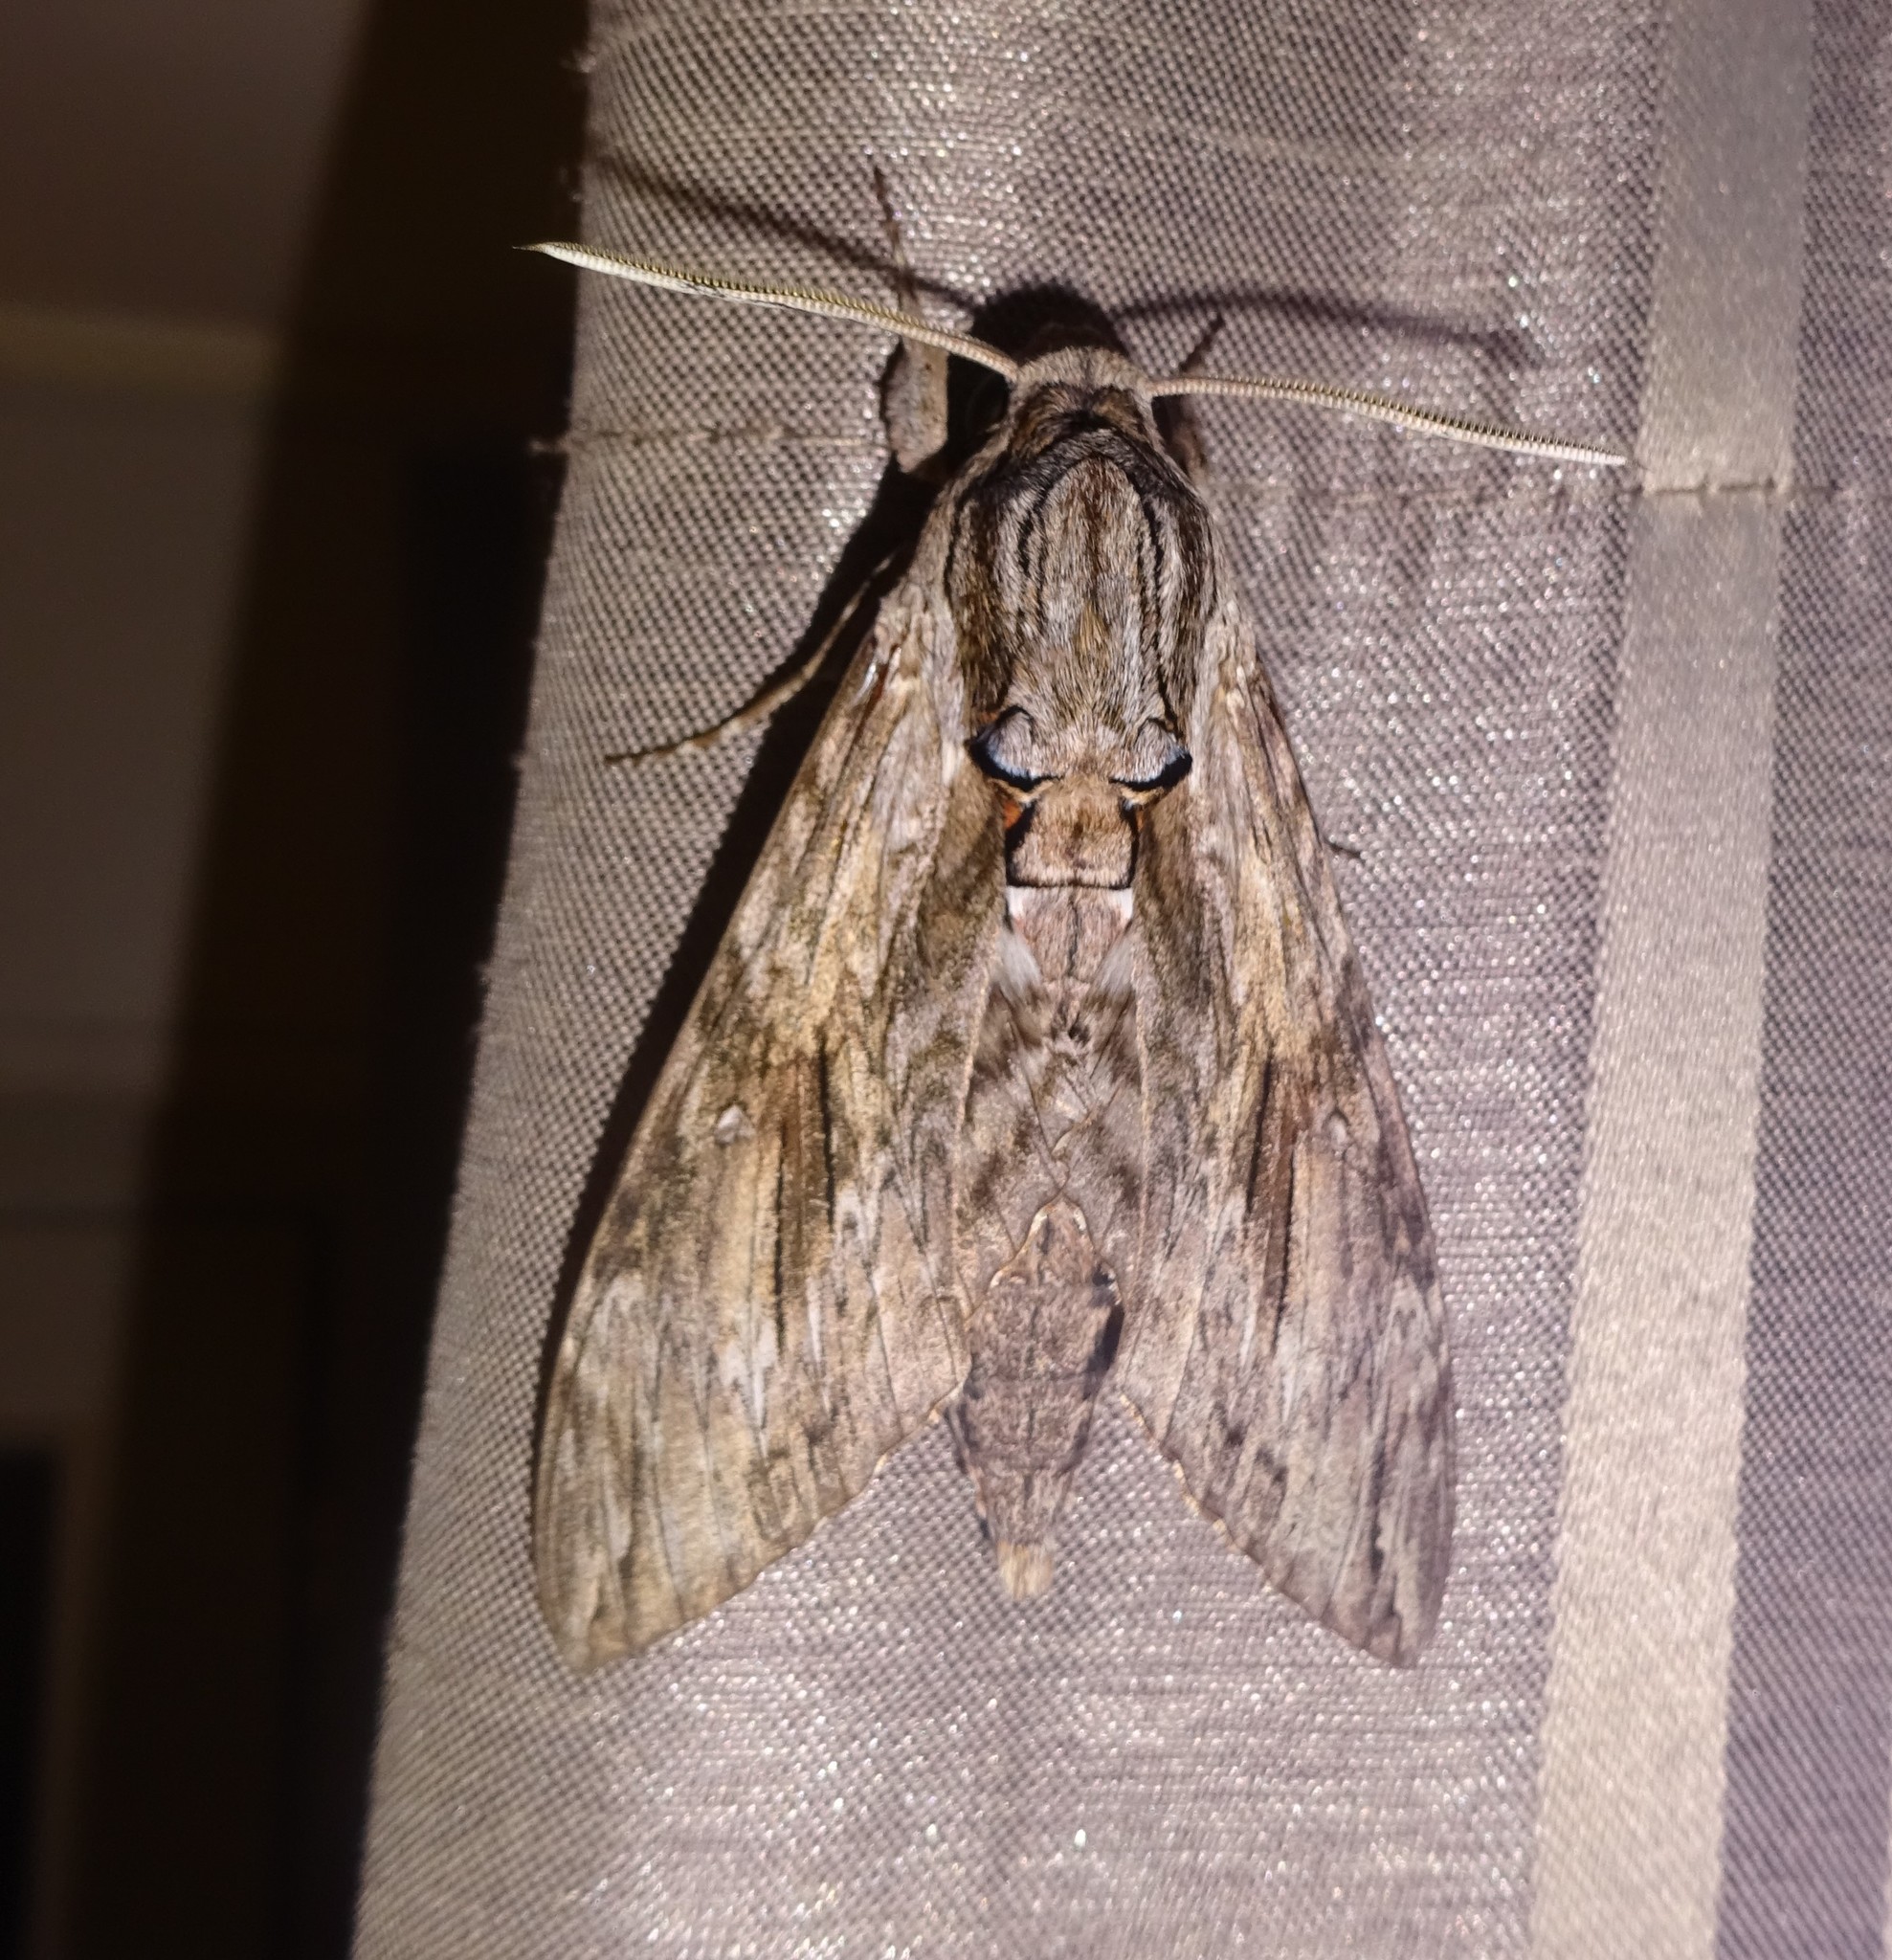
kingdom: Animalia
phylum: Arthropoda
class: Insecta
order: Lepidoptera
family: Sphingidae
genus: Agrius
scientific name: Agrius convolvuli
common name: Convolvulus hawkmoth
